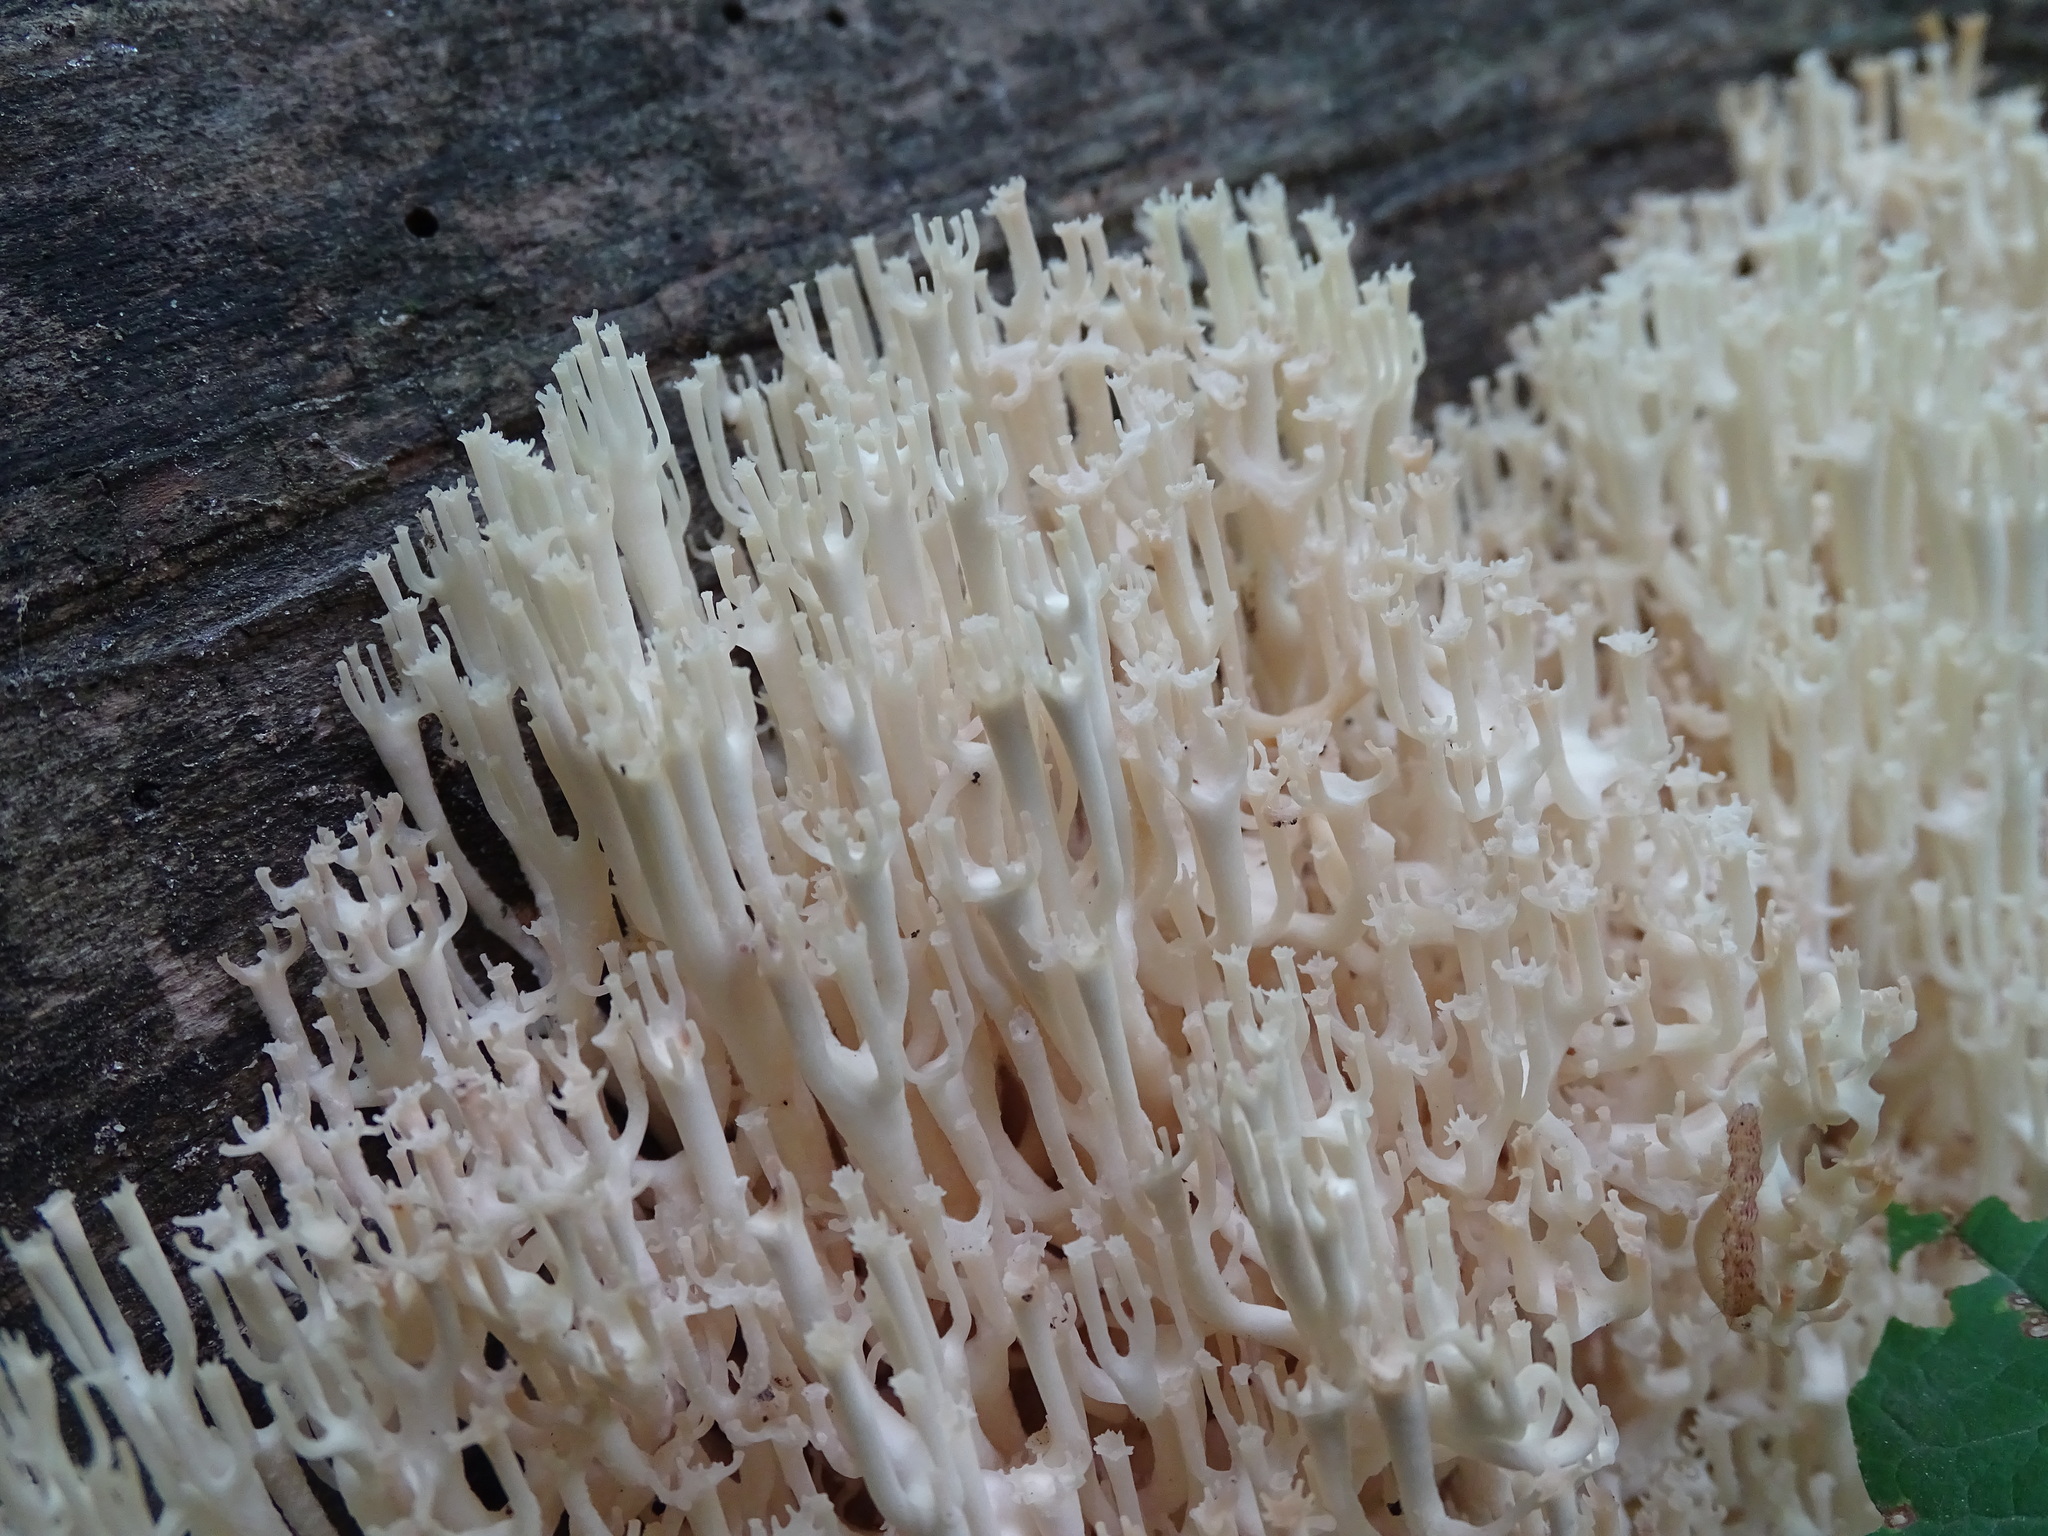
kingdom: Fungi
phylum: Basidiomycota
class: Agaricomycetes
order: Russulales
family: Auriscalpiaceae
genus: Artomyces
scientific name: Artomyces pyxidatus
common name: Crown-tipped coral fungus
